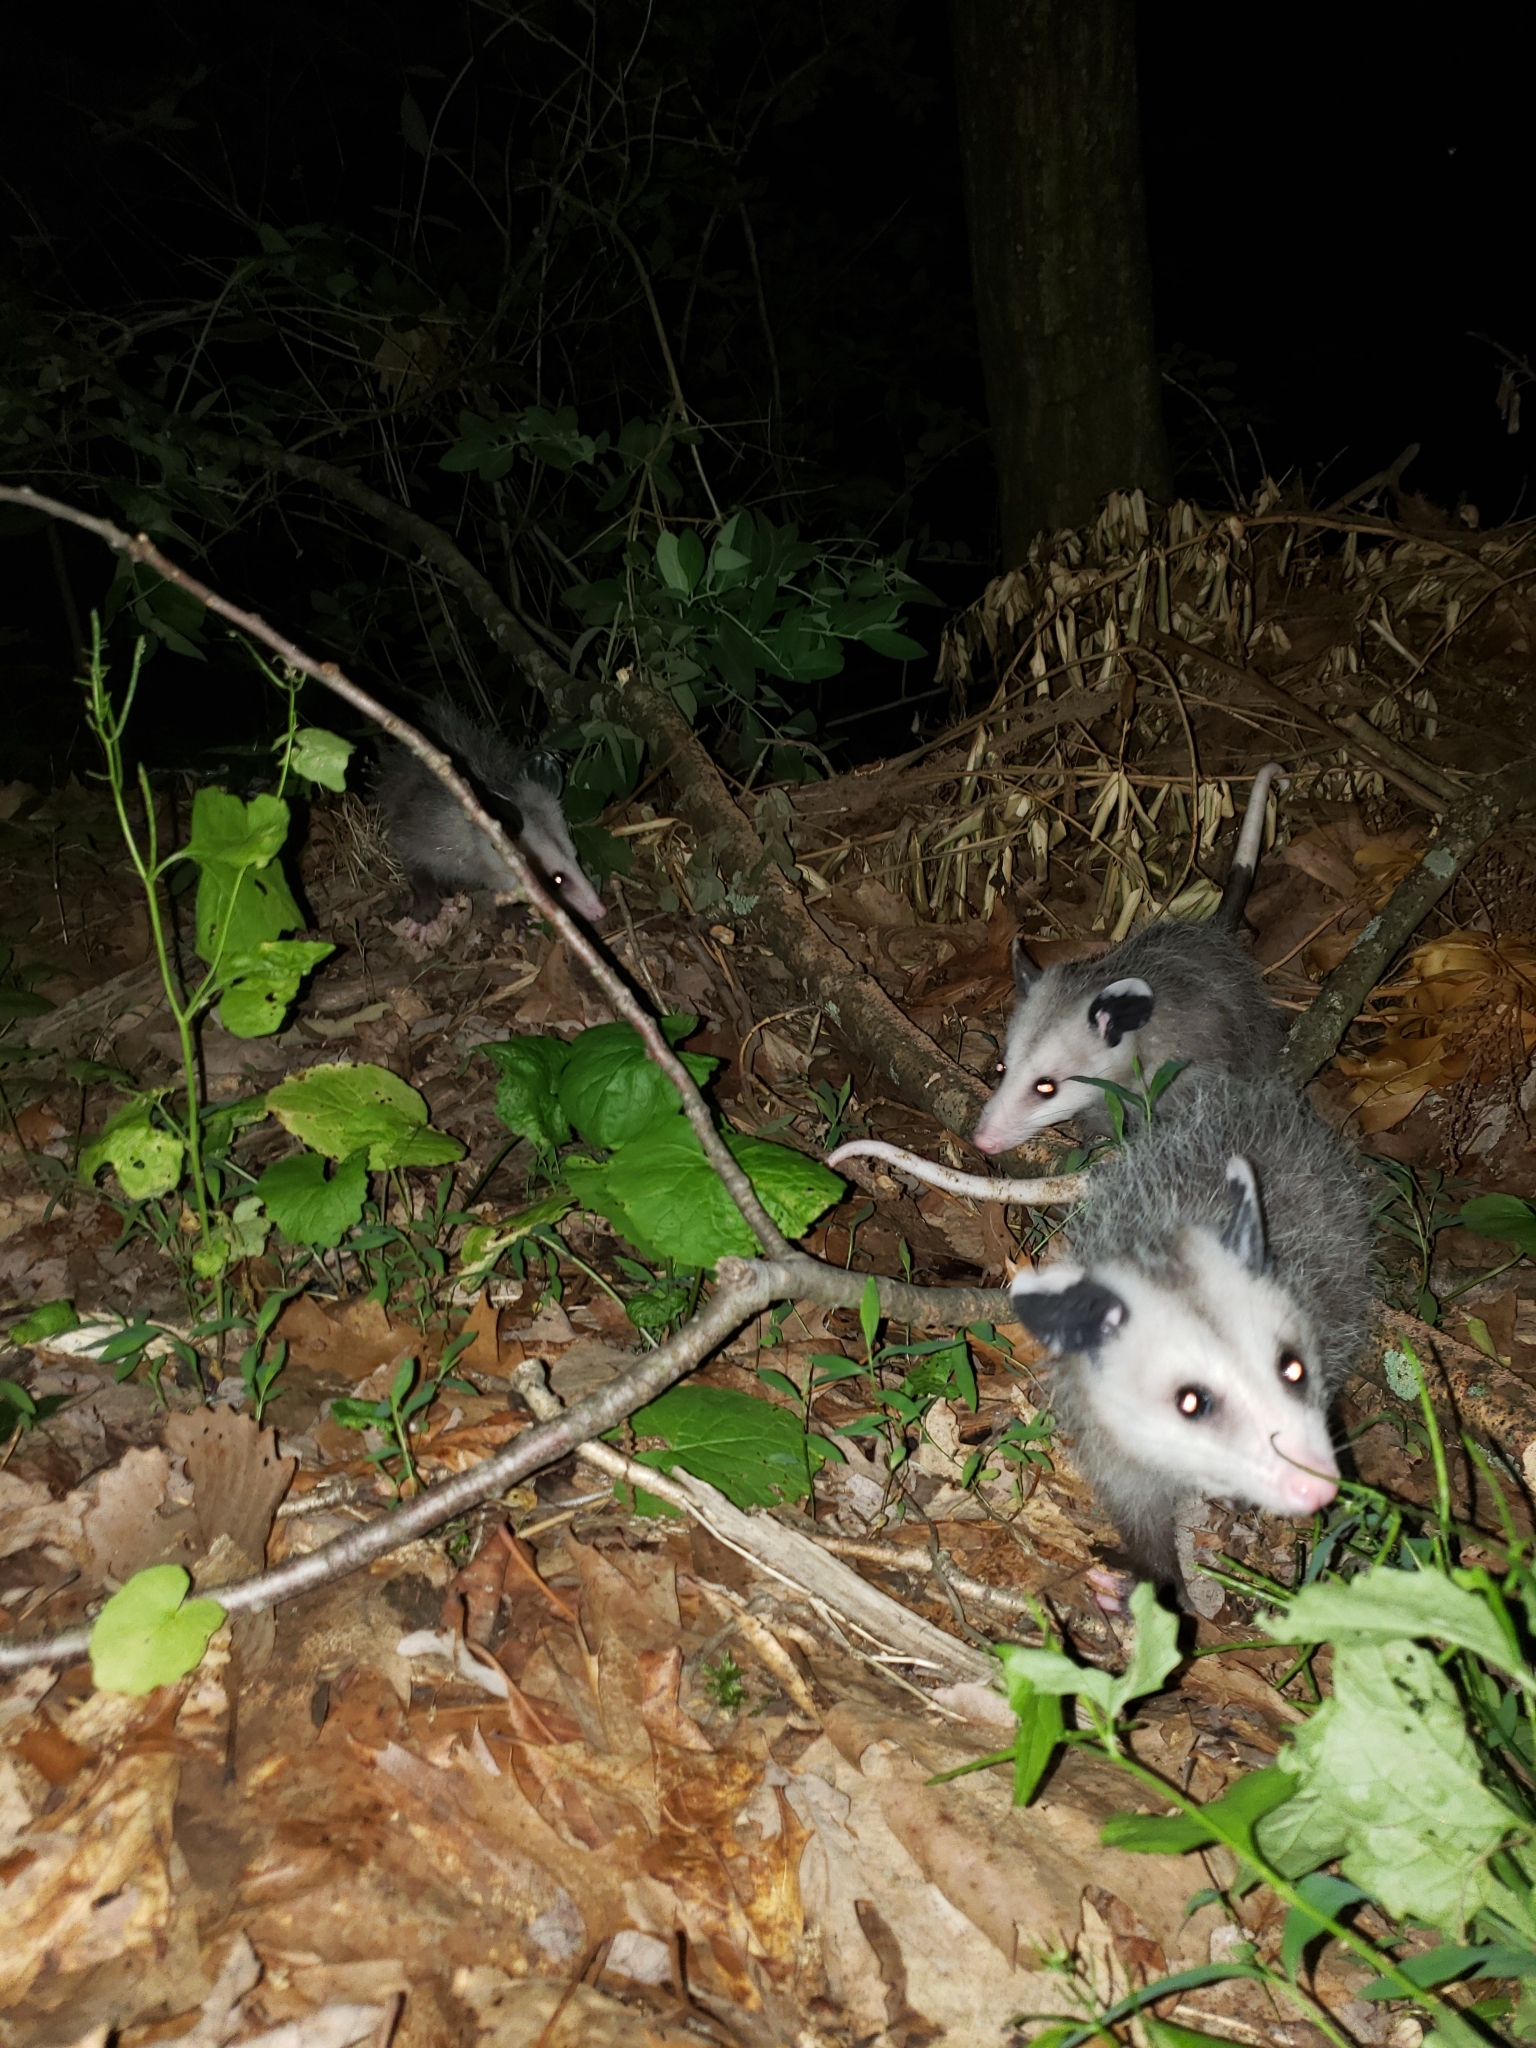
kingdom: Animalia
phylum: Chordata
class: Mammalia
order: Didelphimorphia
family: Didelphidae
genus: Didelphis
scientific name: Didelphis virginiana
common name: Virginia opossum
